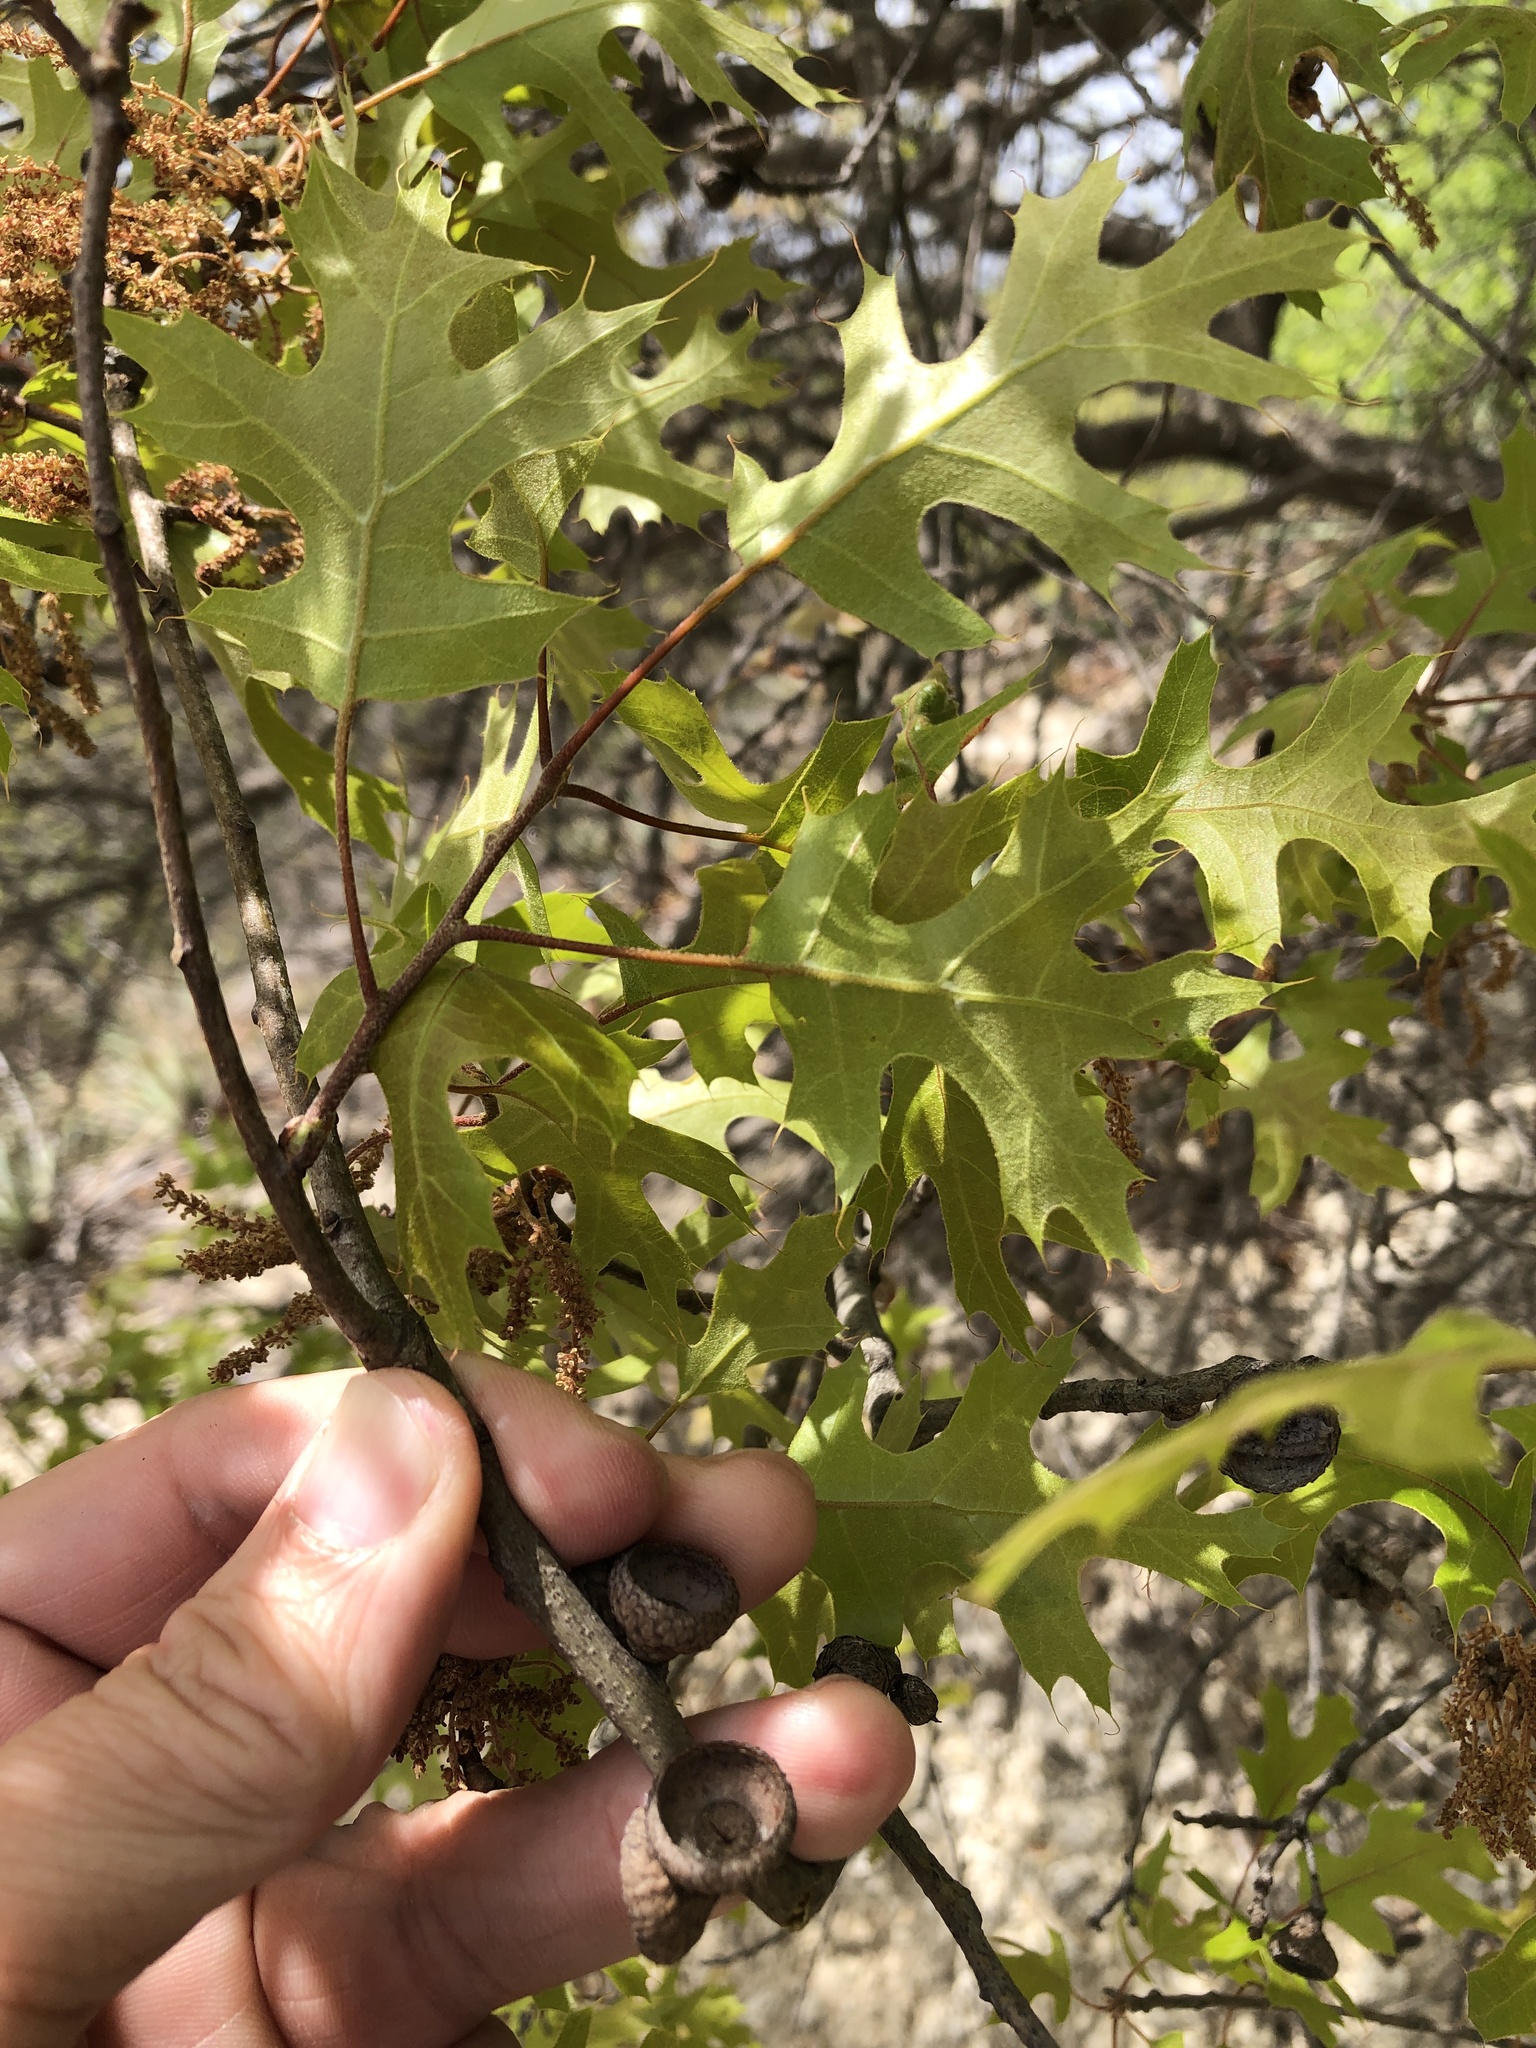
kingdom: Plantae
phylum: Tracheophyta
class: Magnoliopsida
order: Fagales
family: Fagaceae
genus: Quercus
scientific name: Quercus buckleyi
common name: Buckley oak
